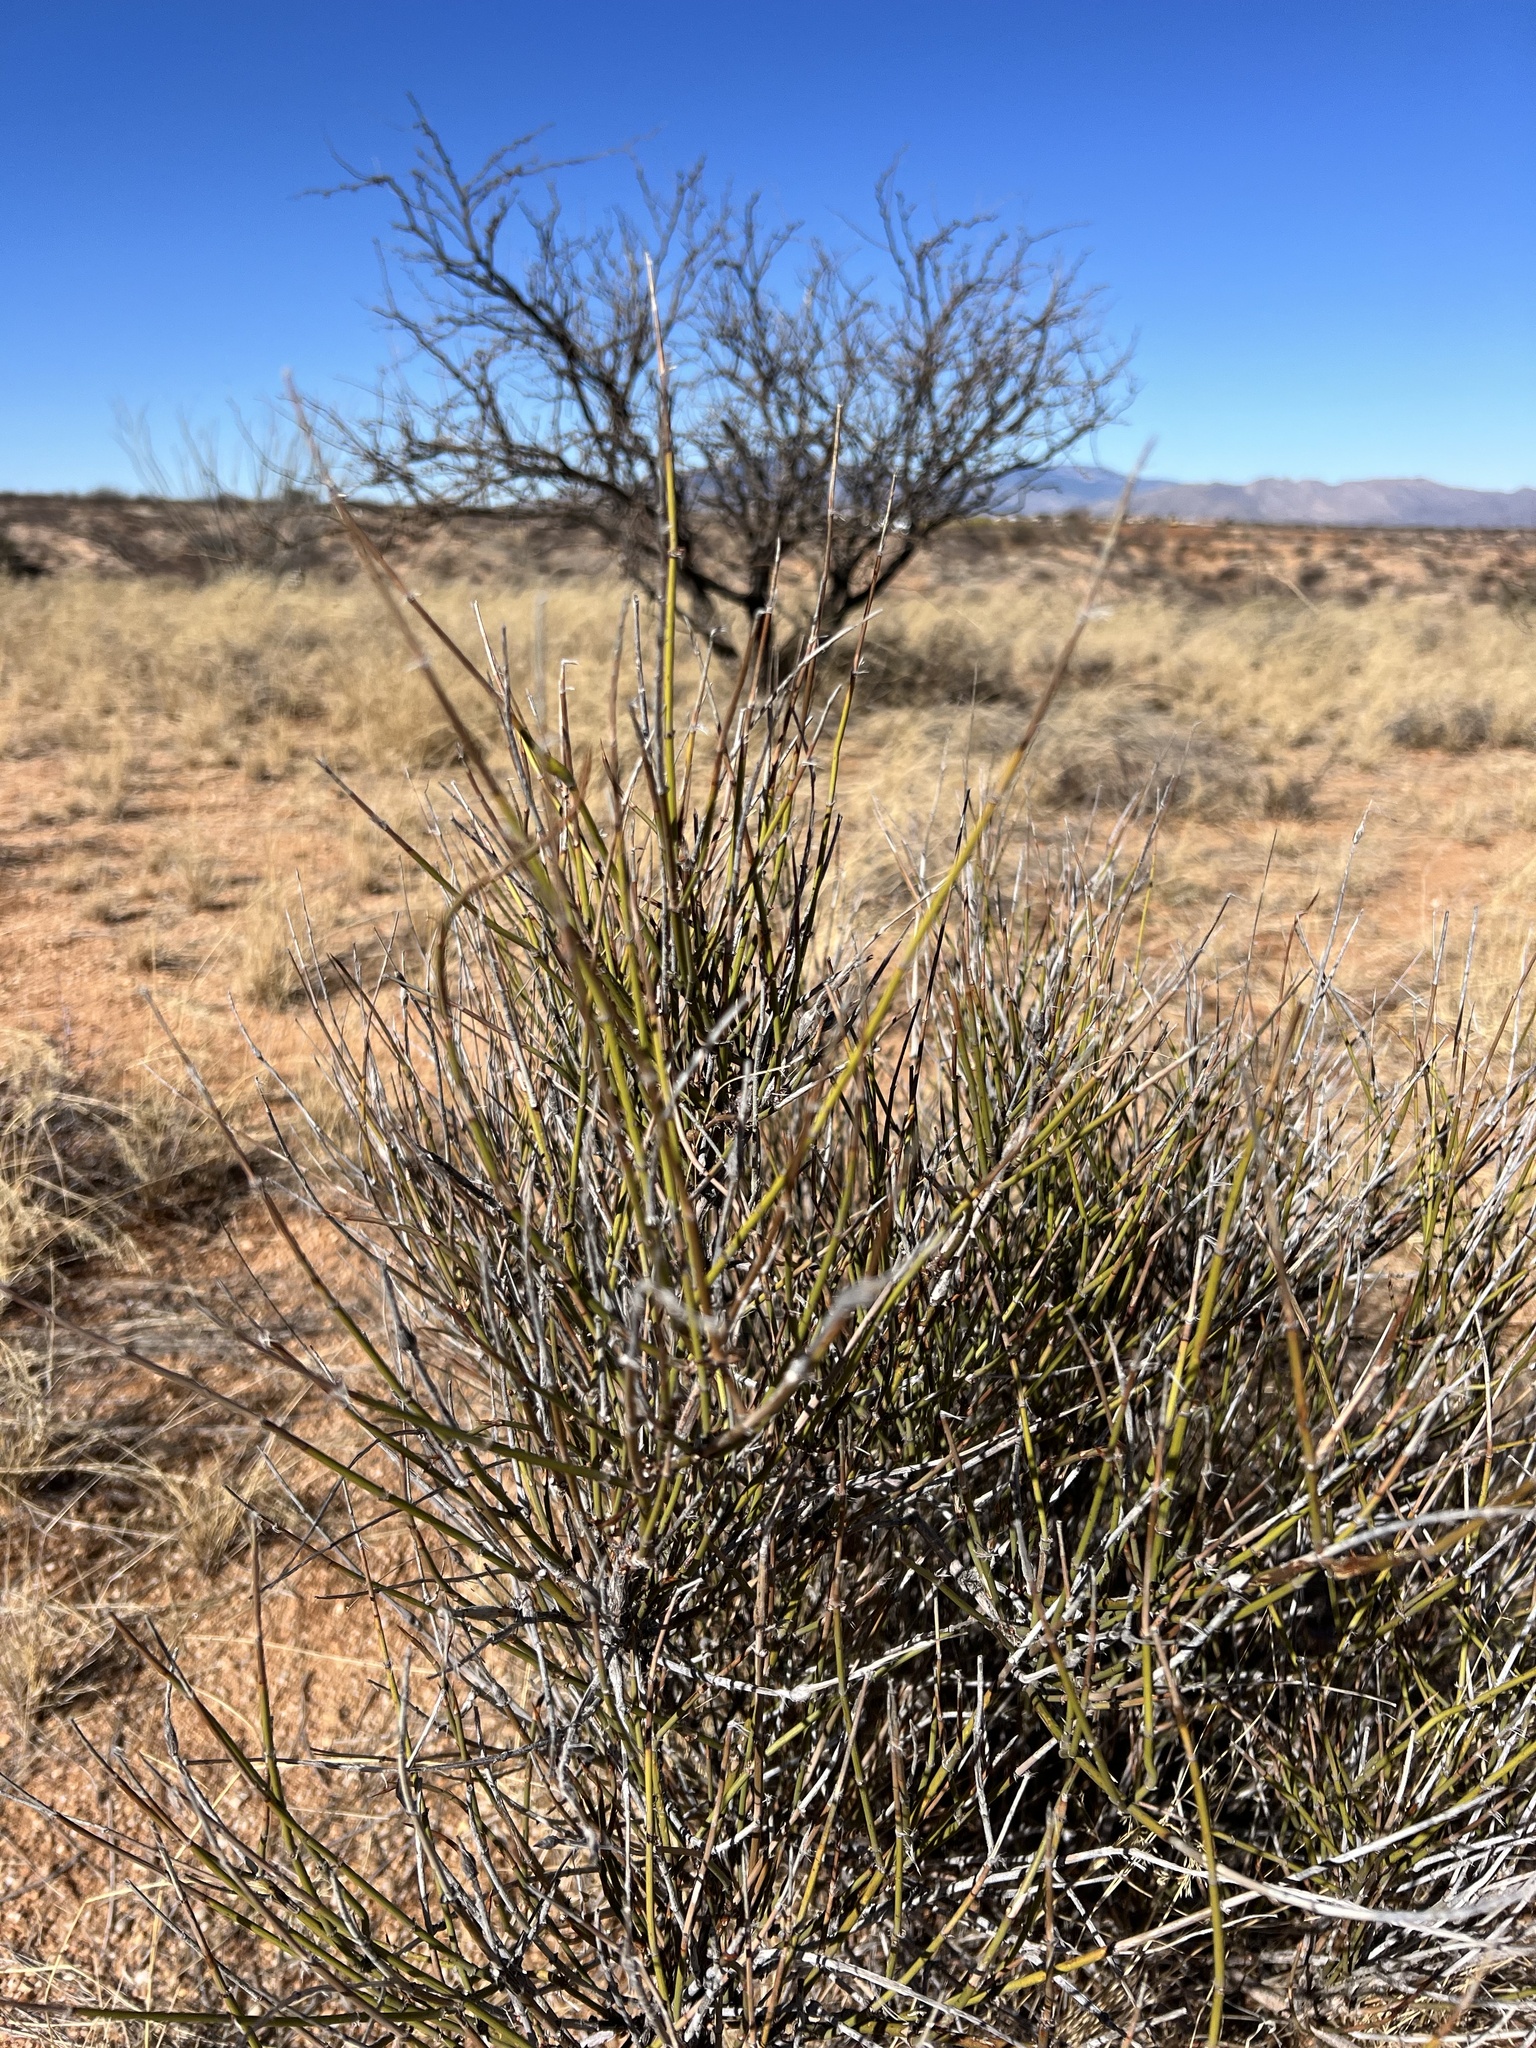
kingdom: Plantae
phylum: Tracheophyta
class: Gnetopsida
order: Ephedrales
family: Ephedraceae
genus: Ephedra
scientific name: Ephedra trifurca
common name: Mexican-tea
